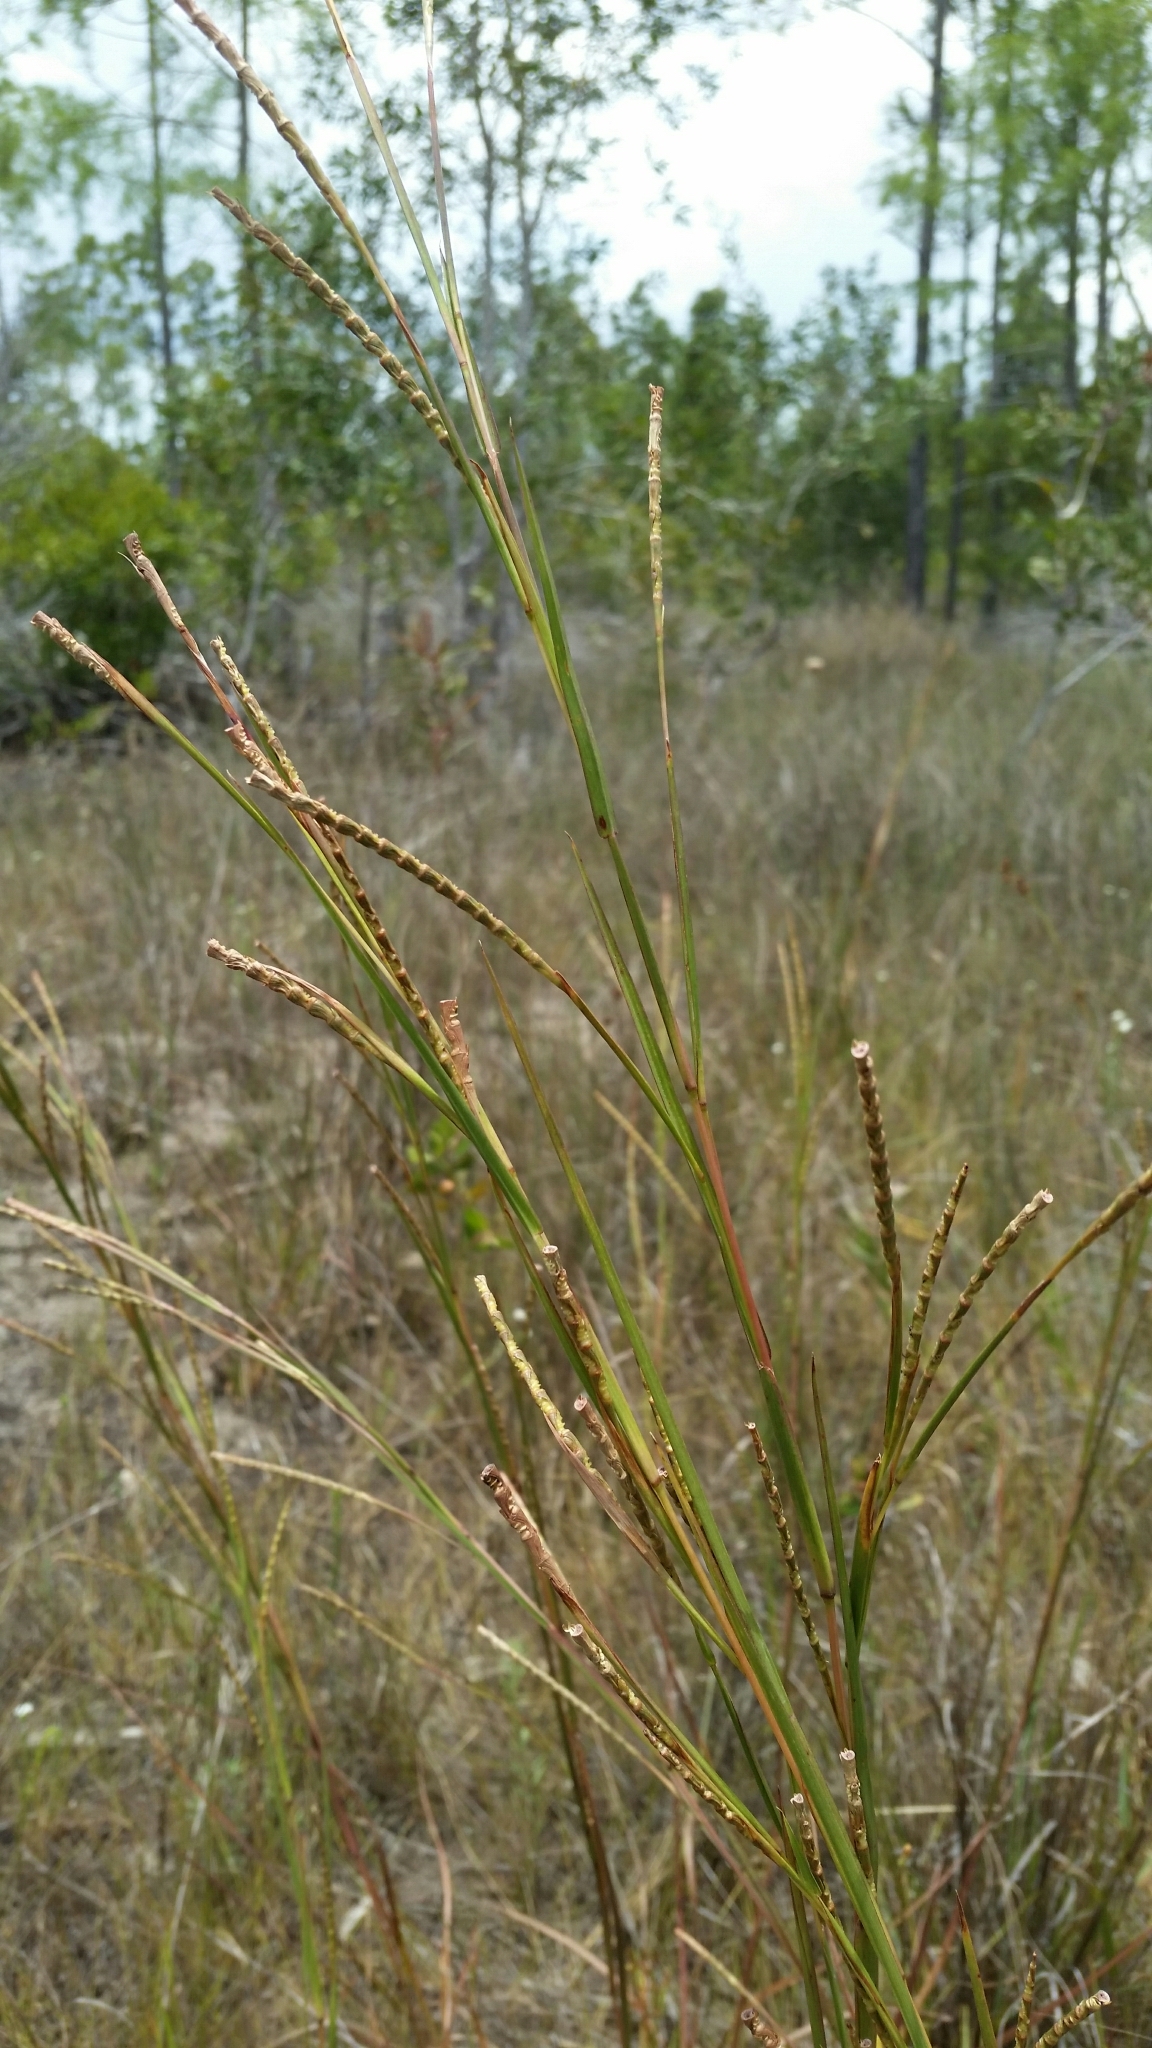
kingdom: Plantae
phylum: Tracheophyta
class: Liliopsida
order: Poales
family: Poaceae
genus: Rottboellia
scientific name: Rottboellia rugosa
